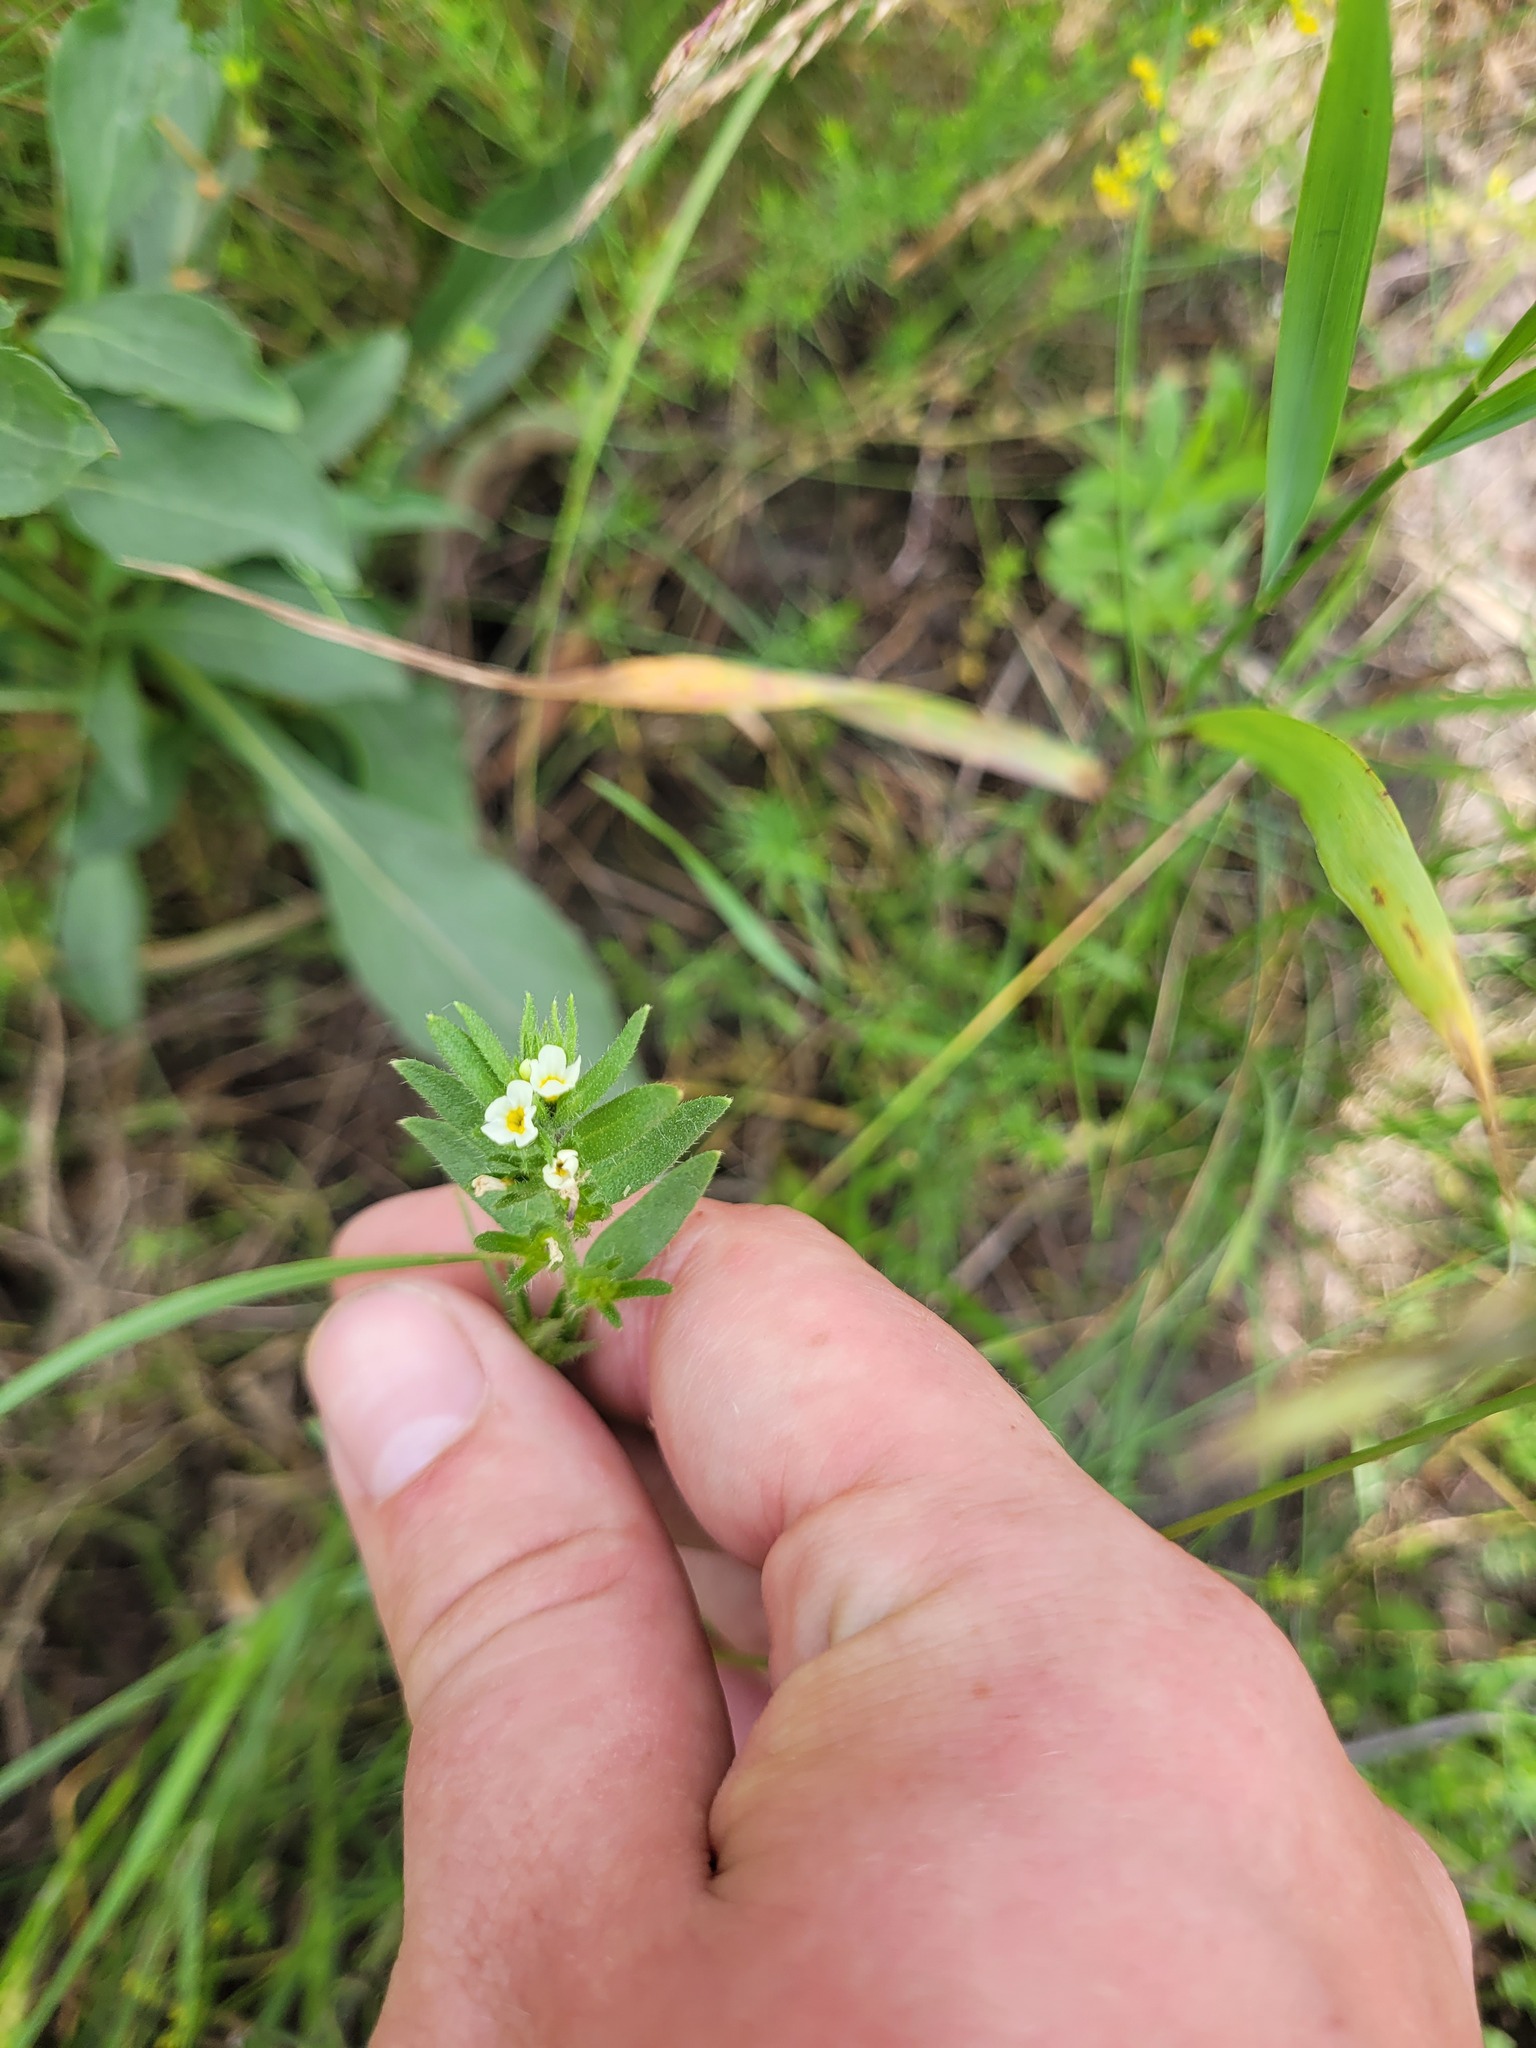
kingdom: Plantae
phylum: Tracheophyta
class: Magnoliopsida
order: Boraginales
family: Boraginaceae
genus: Buglossoides
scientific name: Buglossoides czernjajevii
